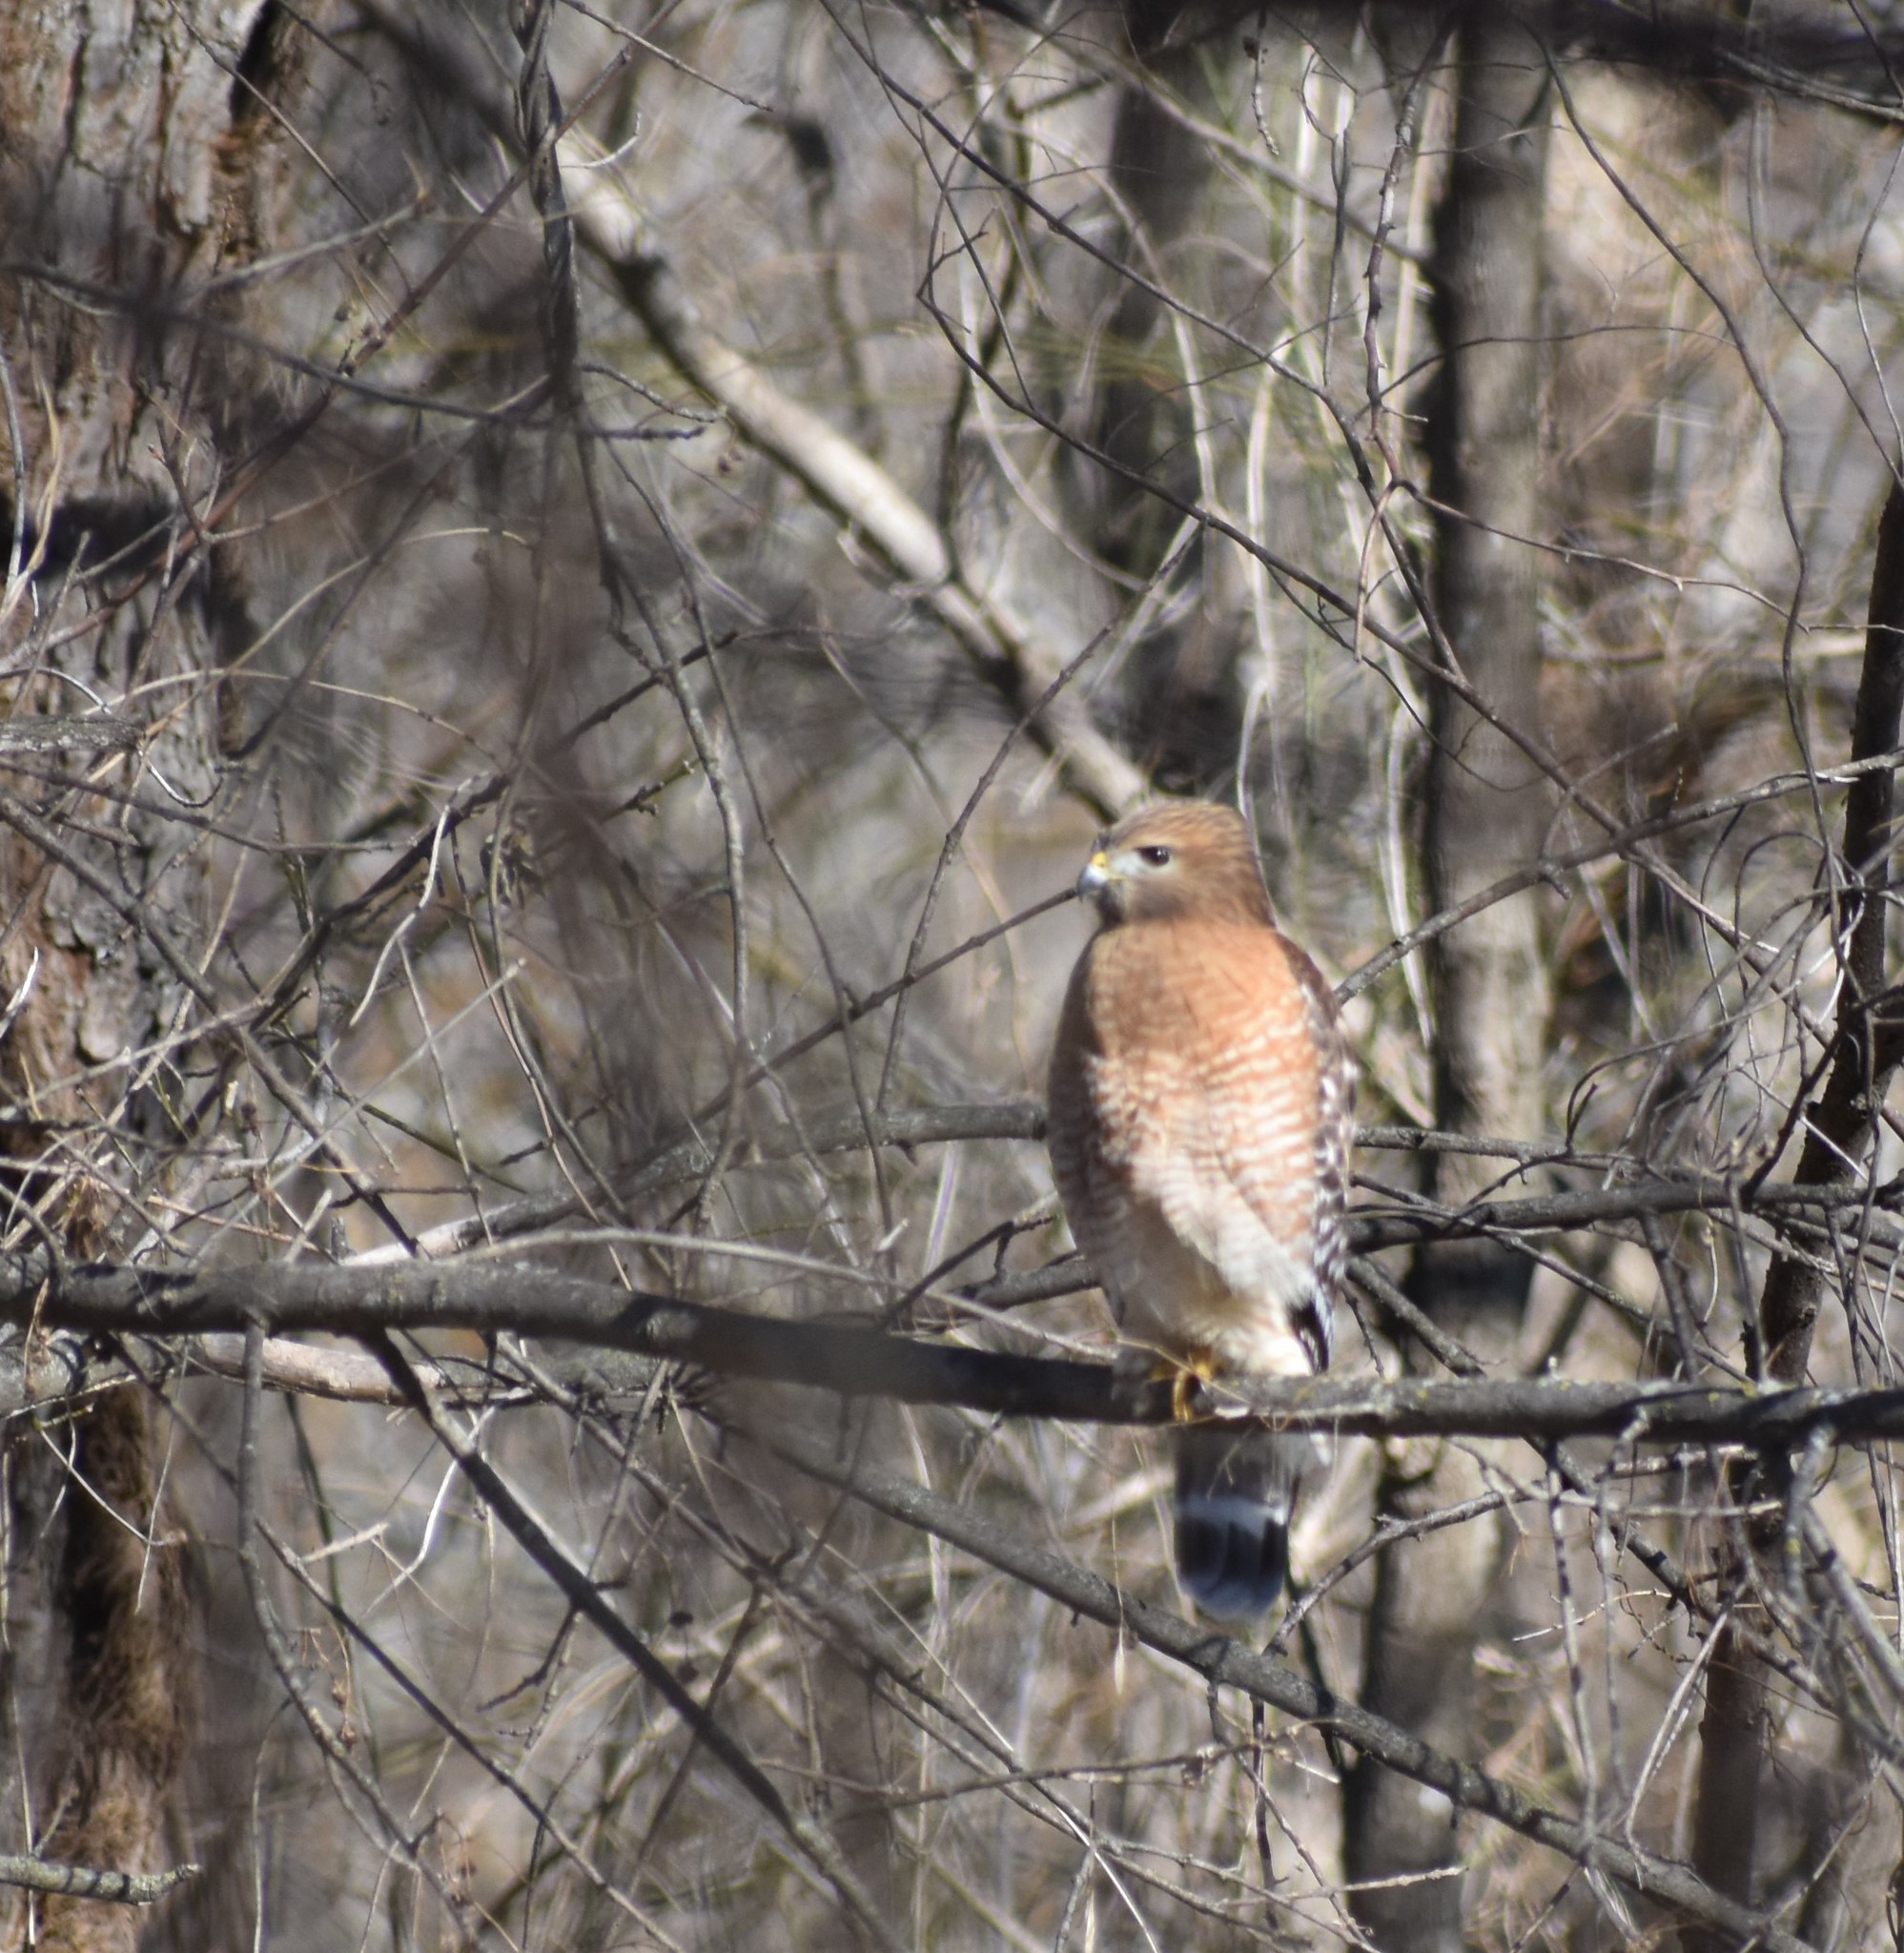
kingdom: Animalia
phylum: Chordata
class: Aves
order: Accipitriformes
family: Accipitridae
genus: Buteo
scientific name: Buteo lineatus
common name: Red-shouldered hawk
